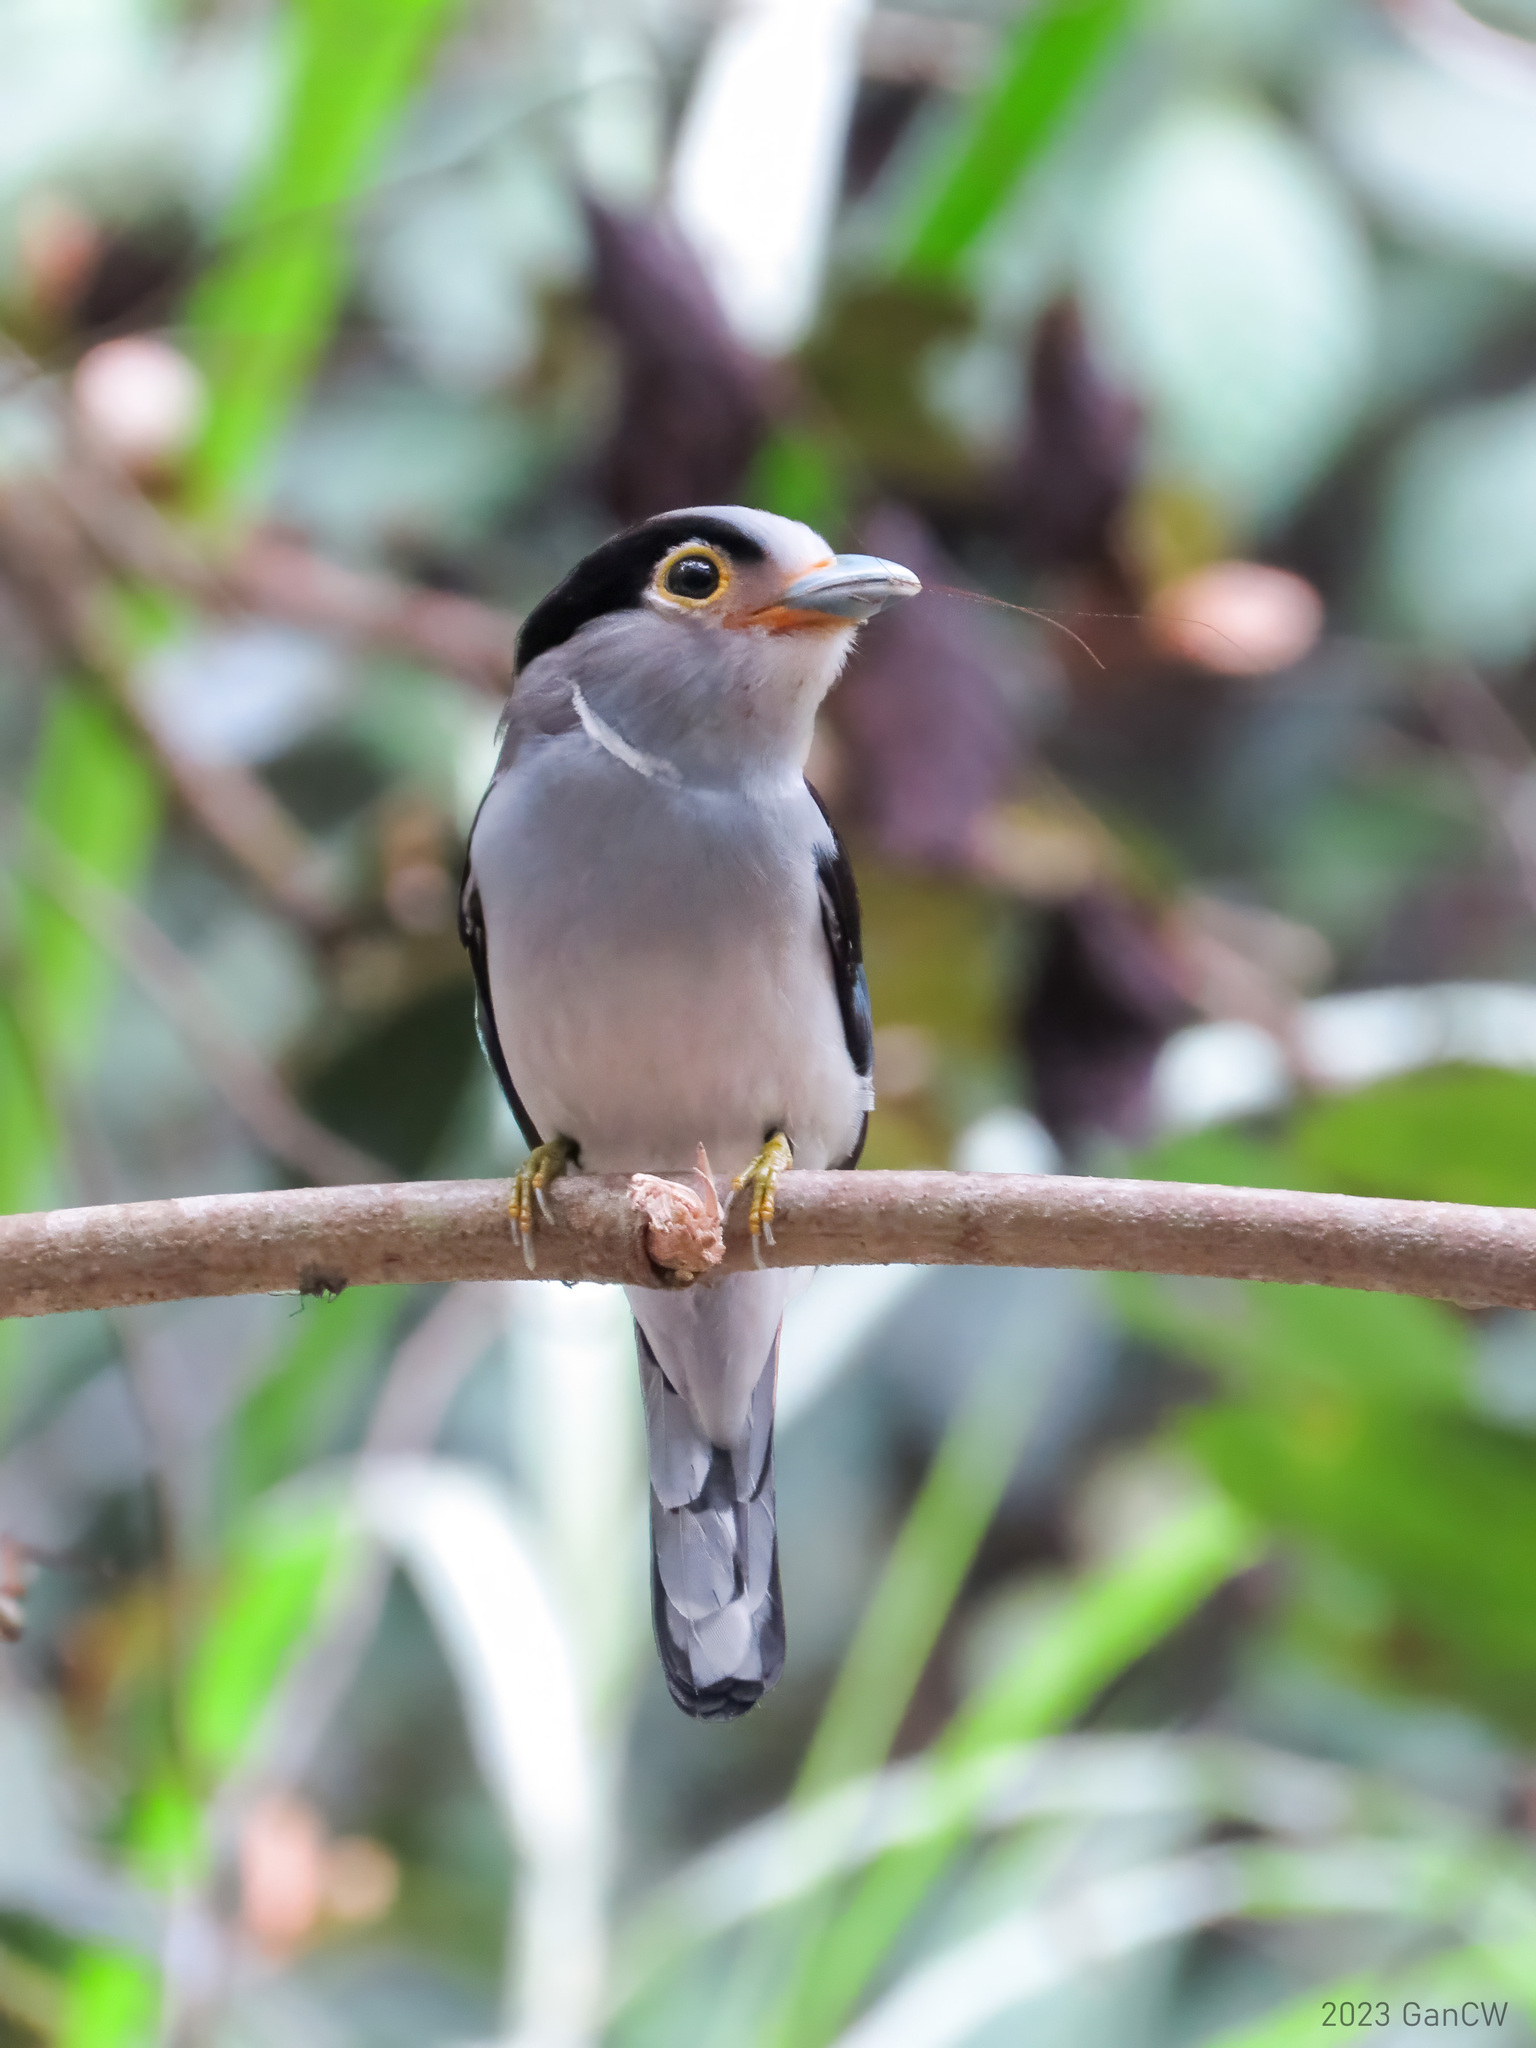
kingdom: Animalia
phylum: Chordata
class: Aves
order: Passeriformes
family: Eurylaimidae
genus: Serilophus
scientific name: Serilophus lunatus
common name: Silver-breasted broadbill
